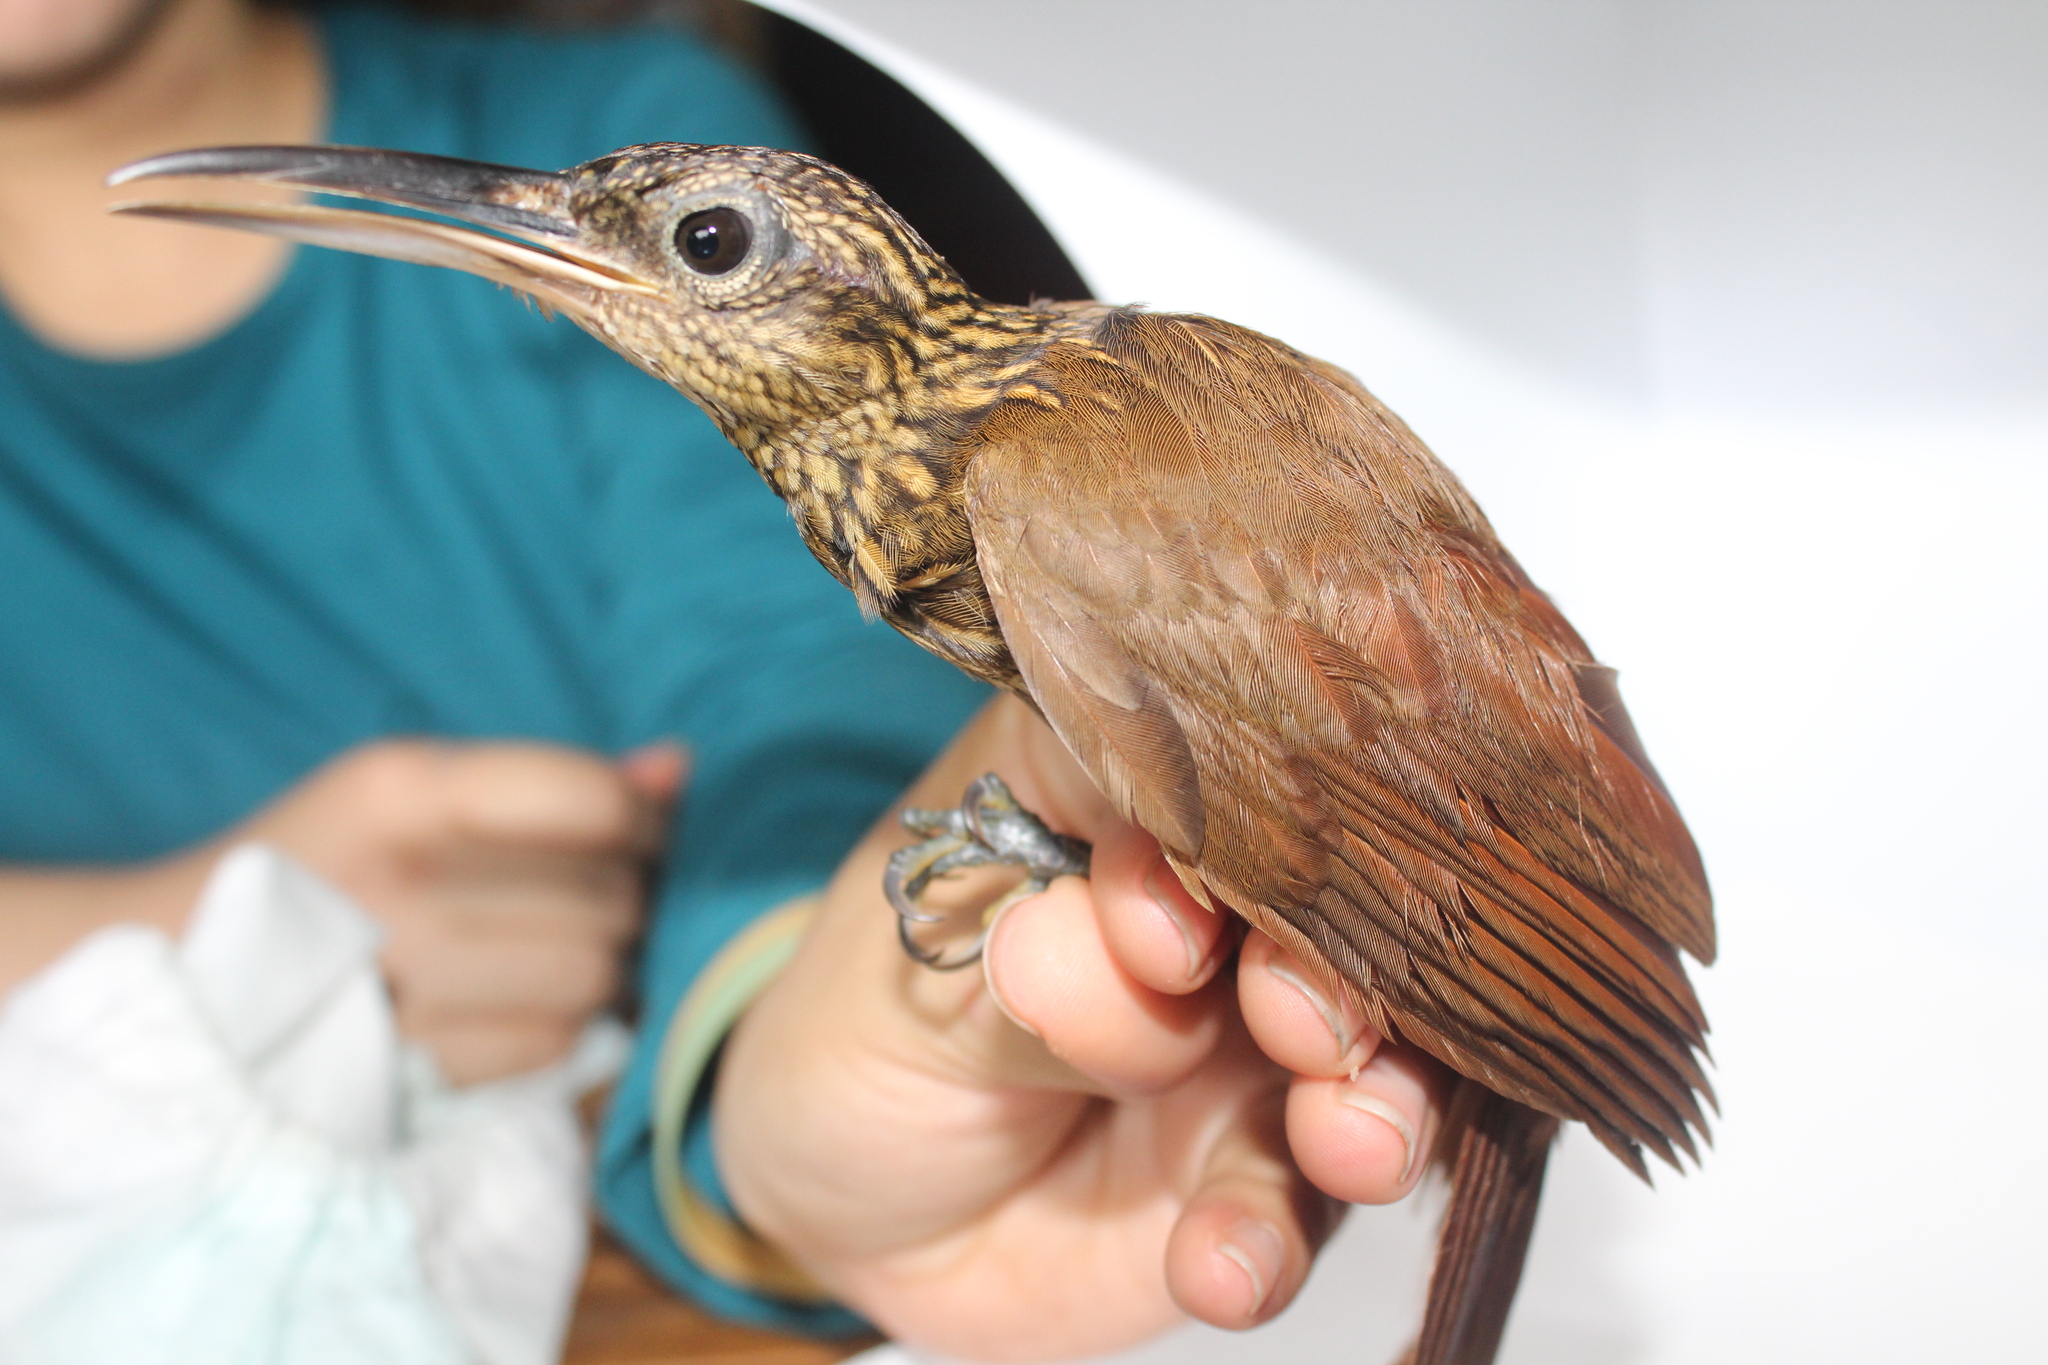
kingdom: Animalia
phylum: Chordata
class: Aves
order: Passeriformes
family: Furnariidae
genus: Xiphorhynchus
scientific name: Xiphorhynchus susurrans
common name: Cocoa woodcreeper
